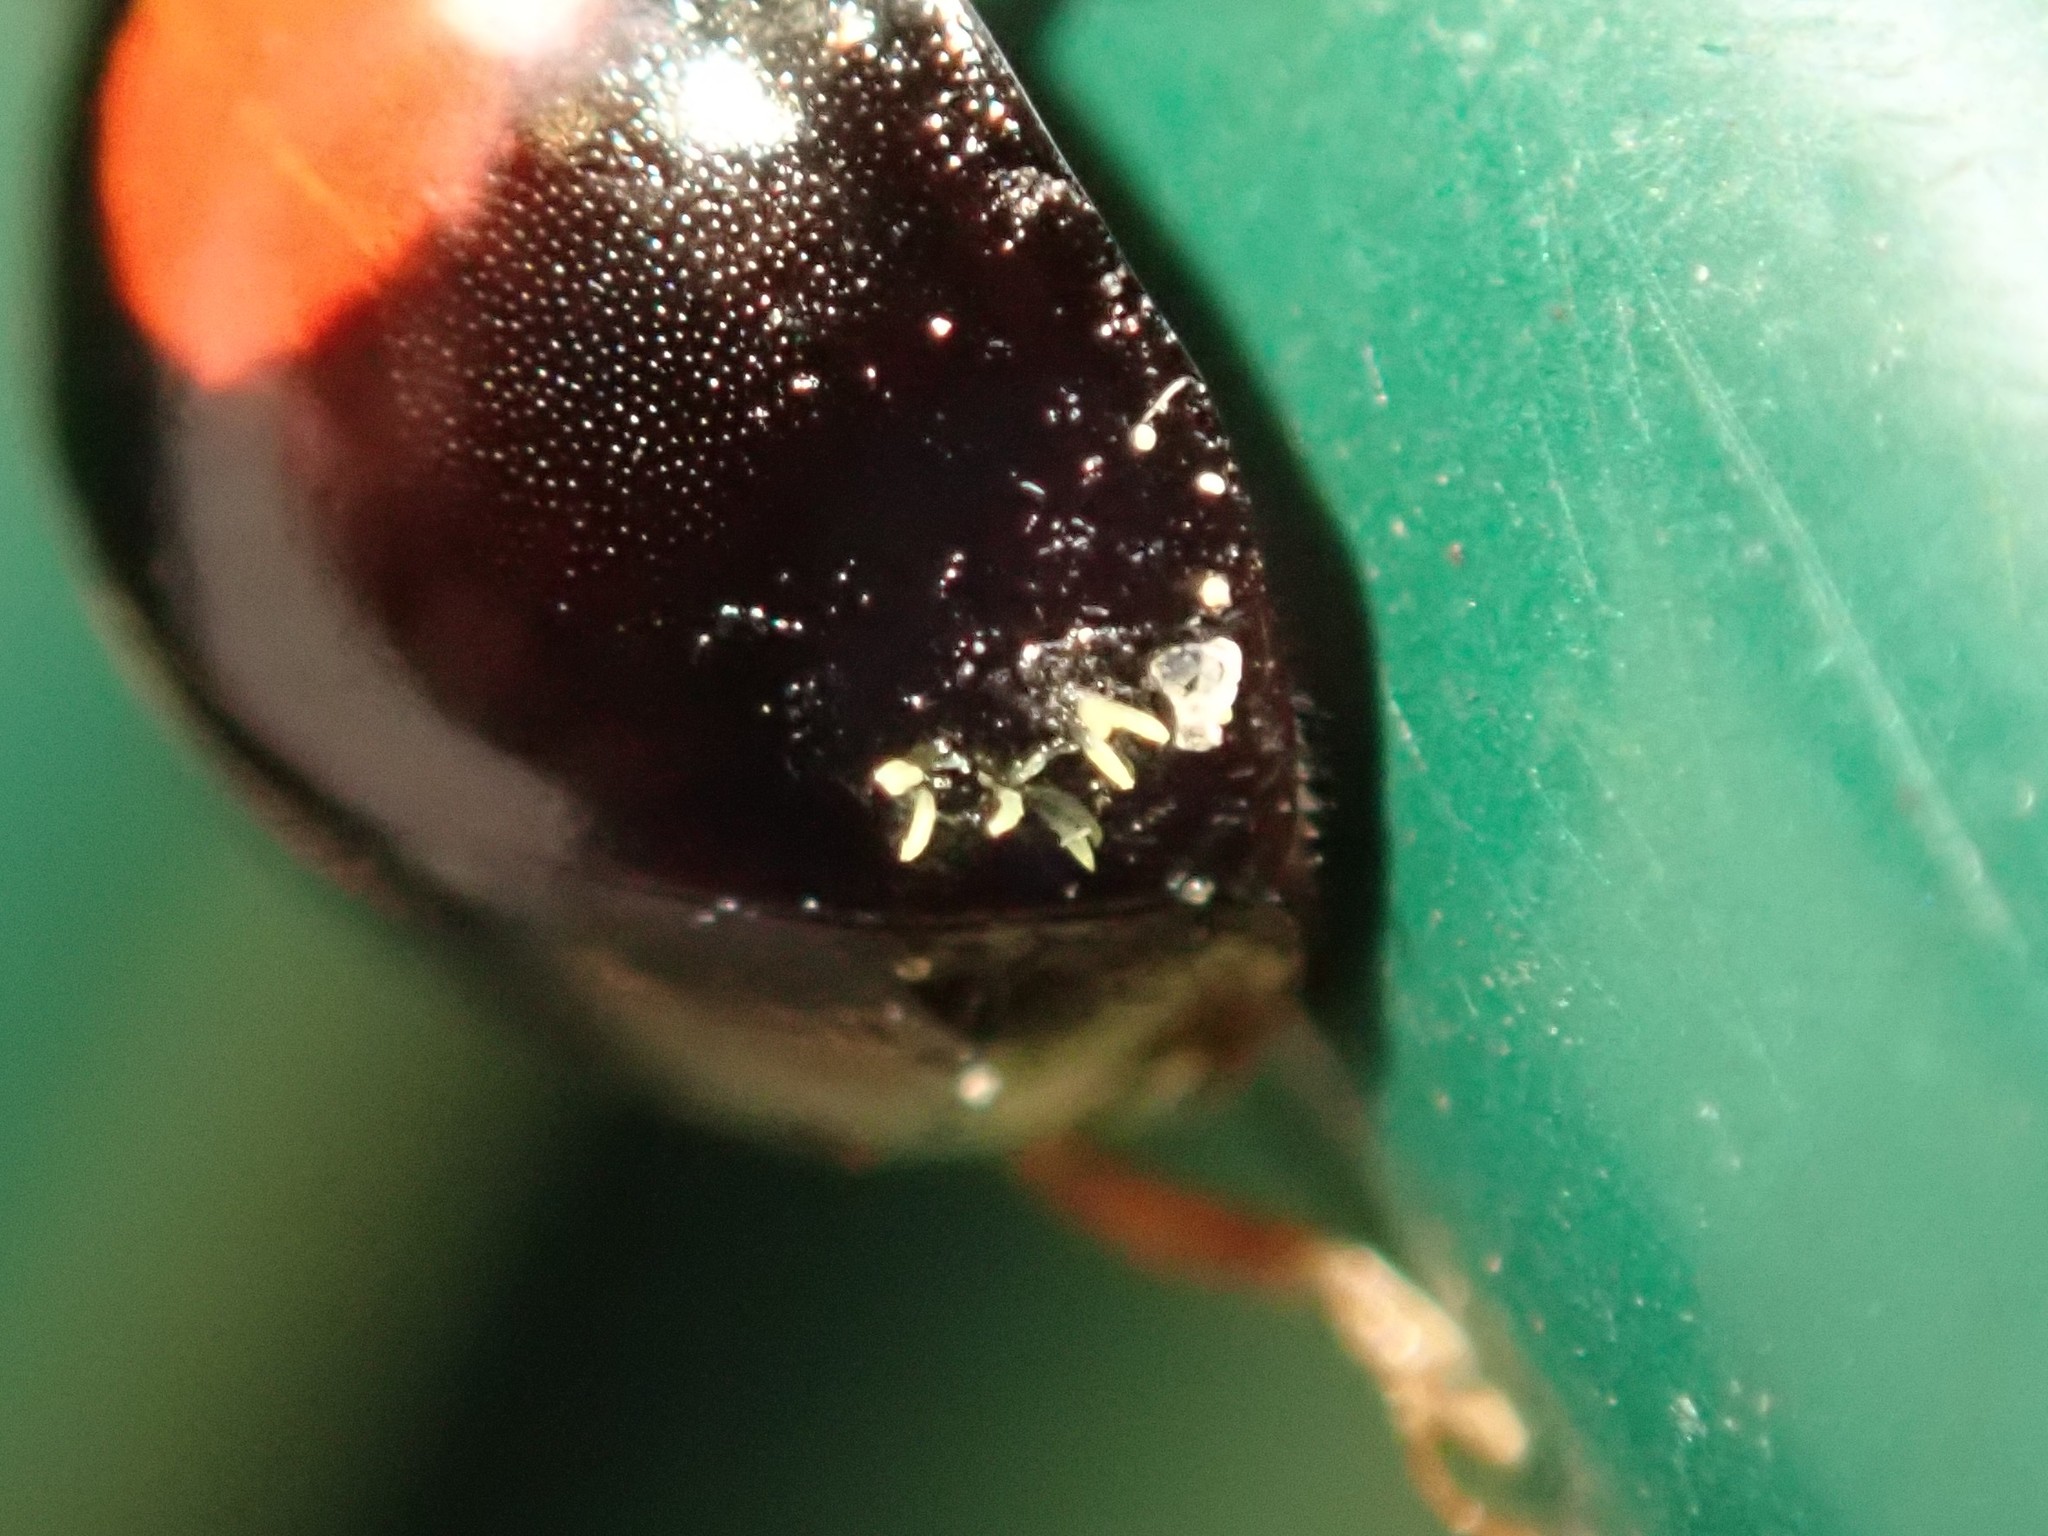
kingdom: Fungi
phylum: Ascomycota
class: Laboulbeniomycetes
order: Laboulbeniales
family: Laboulbeniaceae
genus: Hesperomyces
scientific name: Hesperomyces harmoniae
